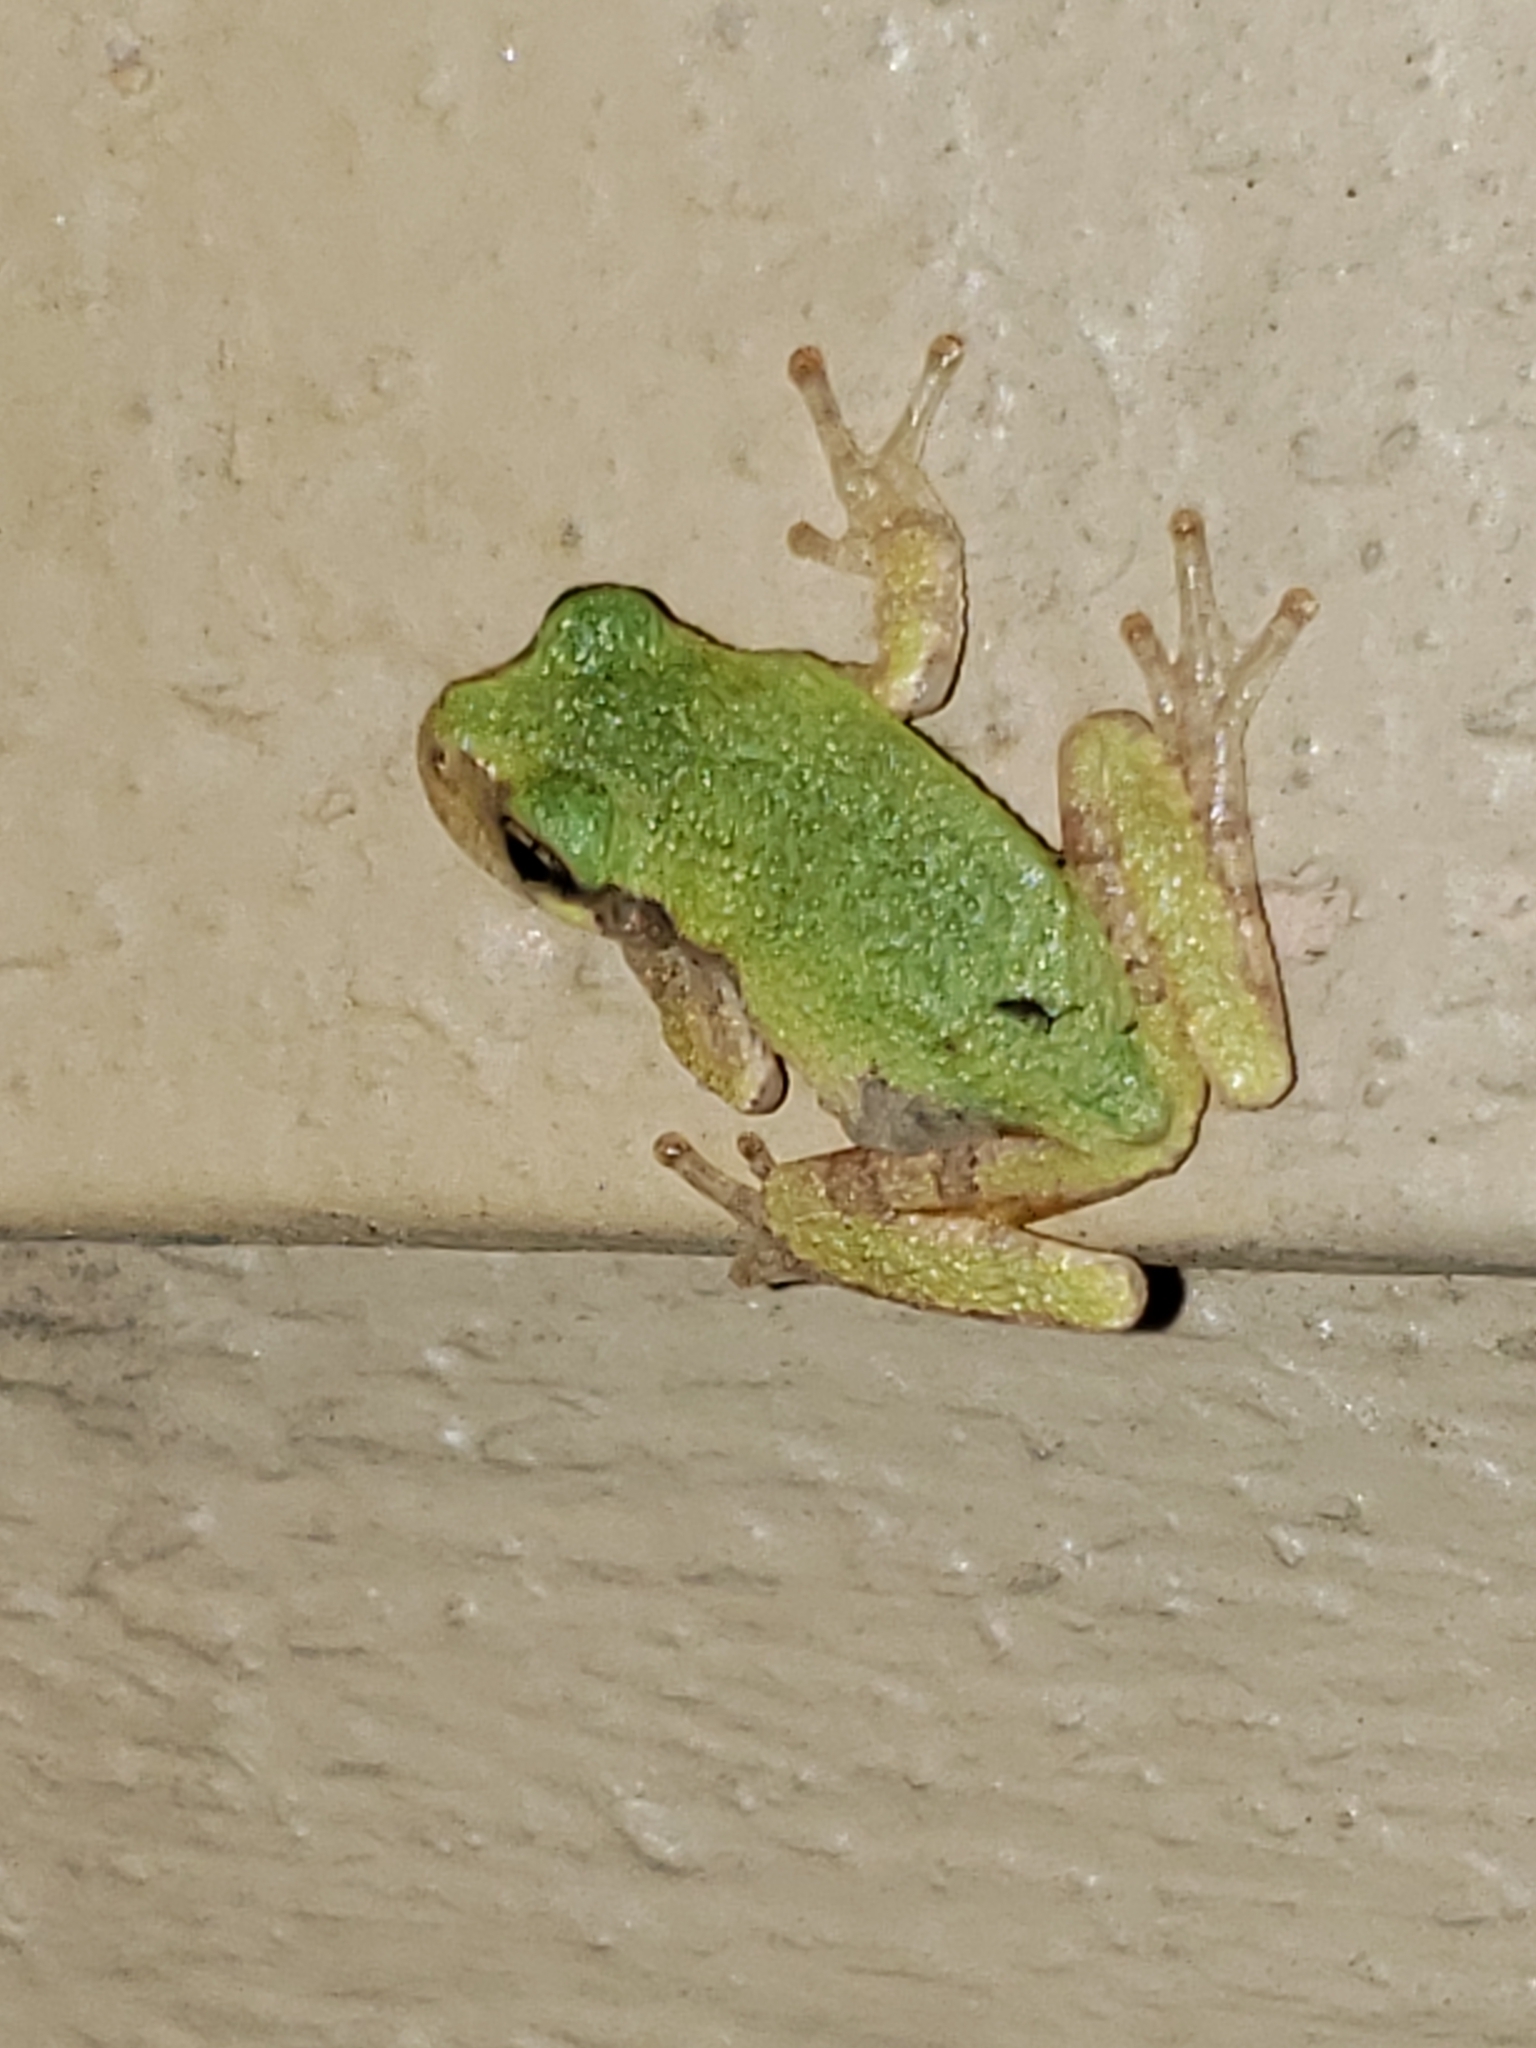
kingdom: Animalia
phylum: Chordata
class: Amphibia
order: Anura
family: Hylidae
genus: Hyla
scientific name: Hyla
